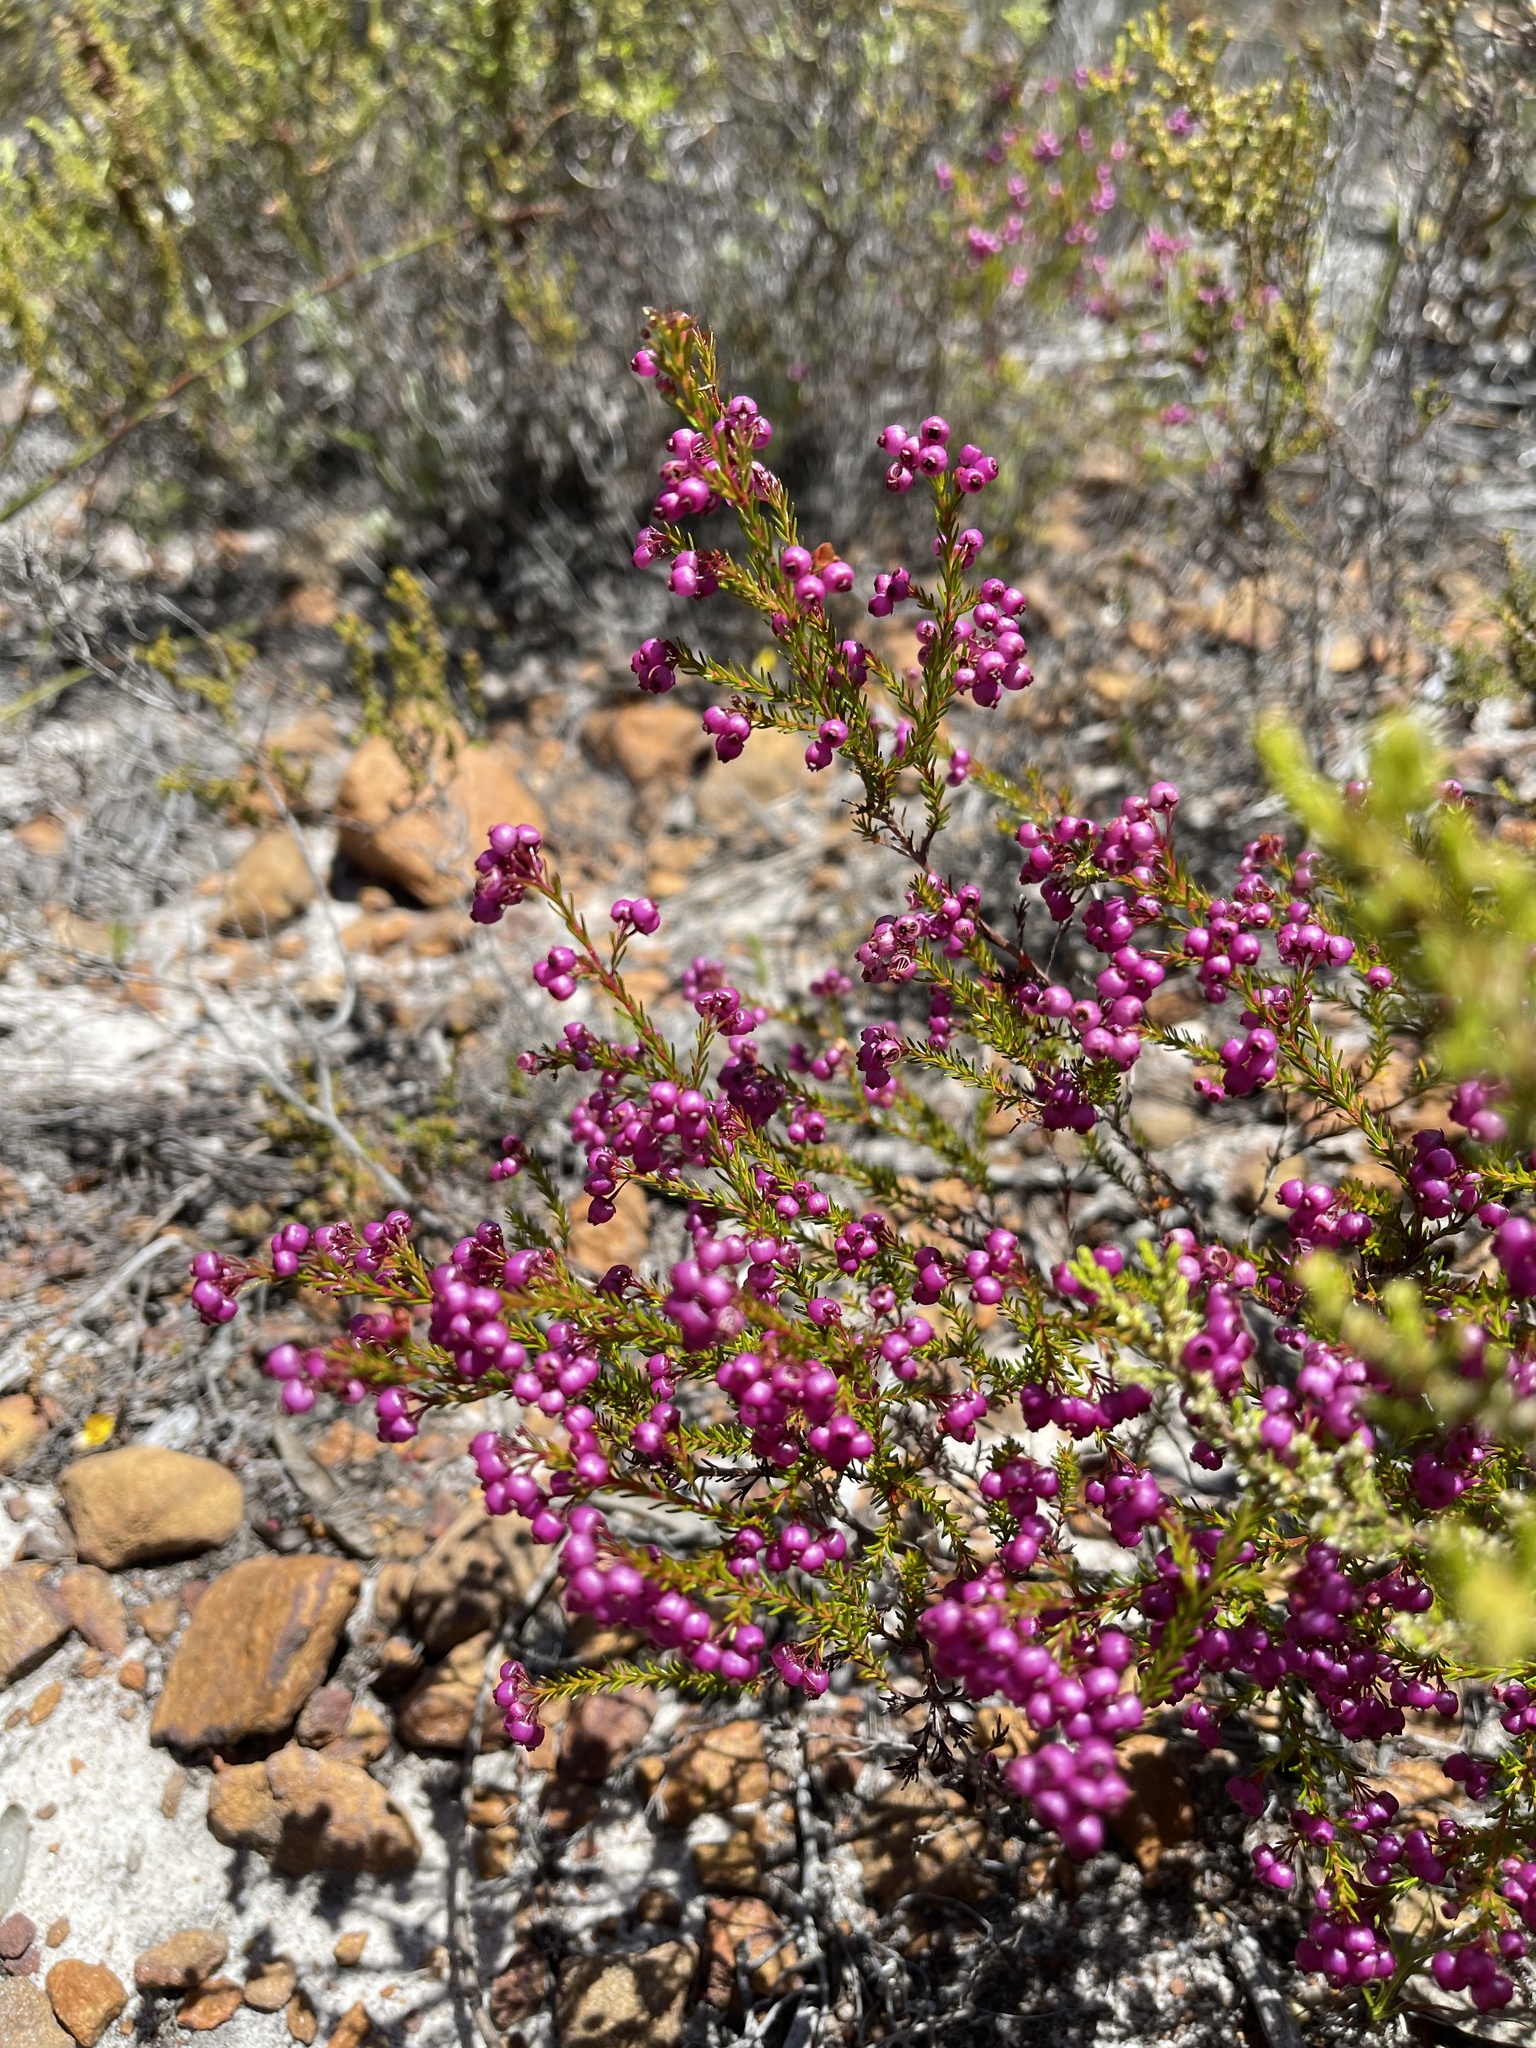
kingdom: Plantae
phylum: Tracheophyta
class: Magnoliopsida
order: Ericales
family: Ericaceae
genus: Erica
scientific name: Erica multumbellifera
